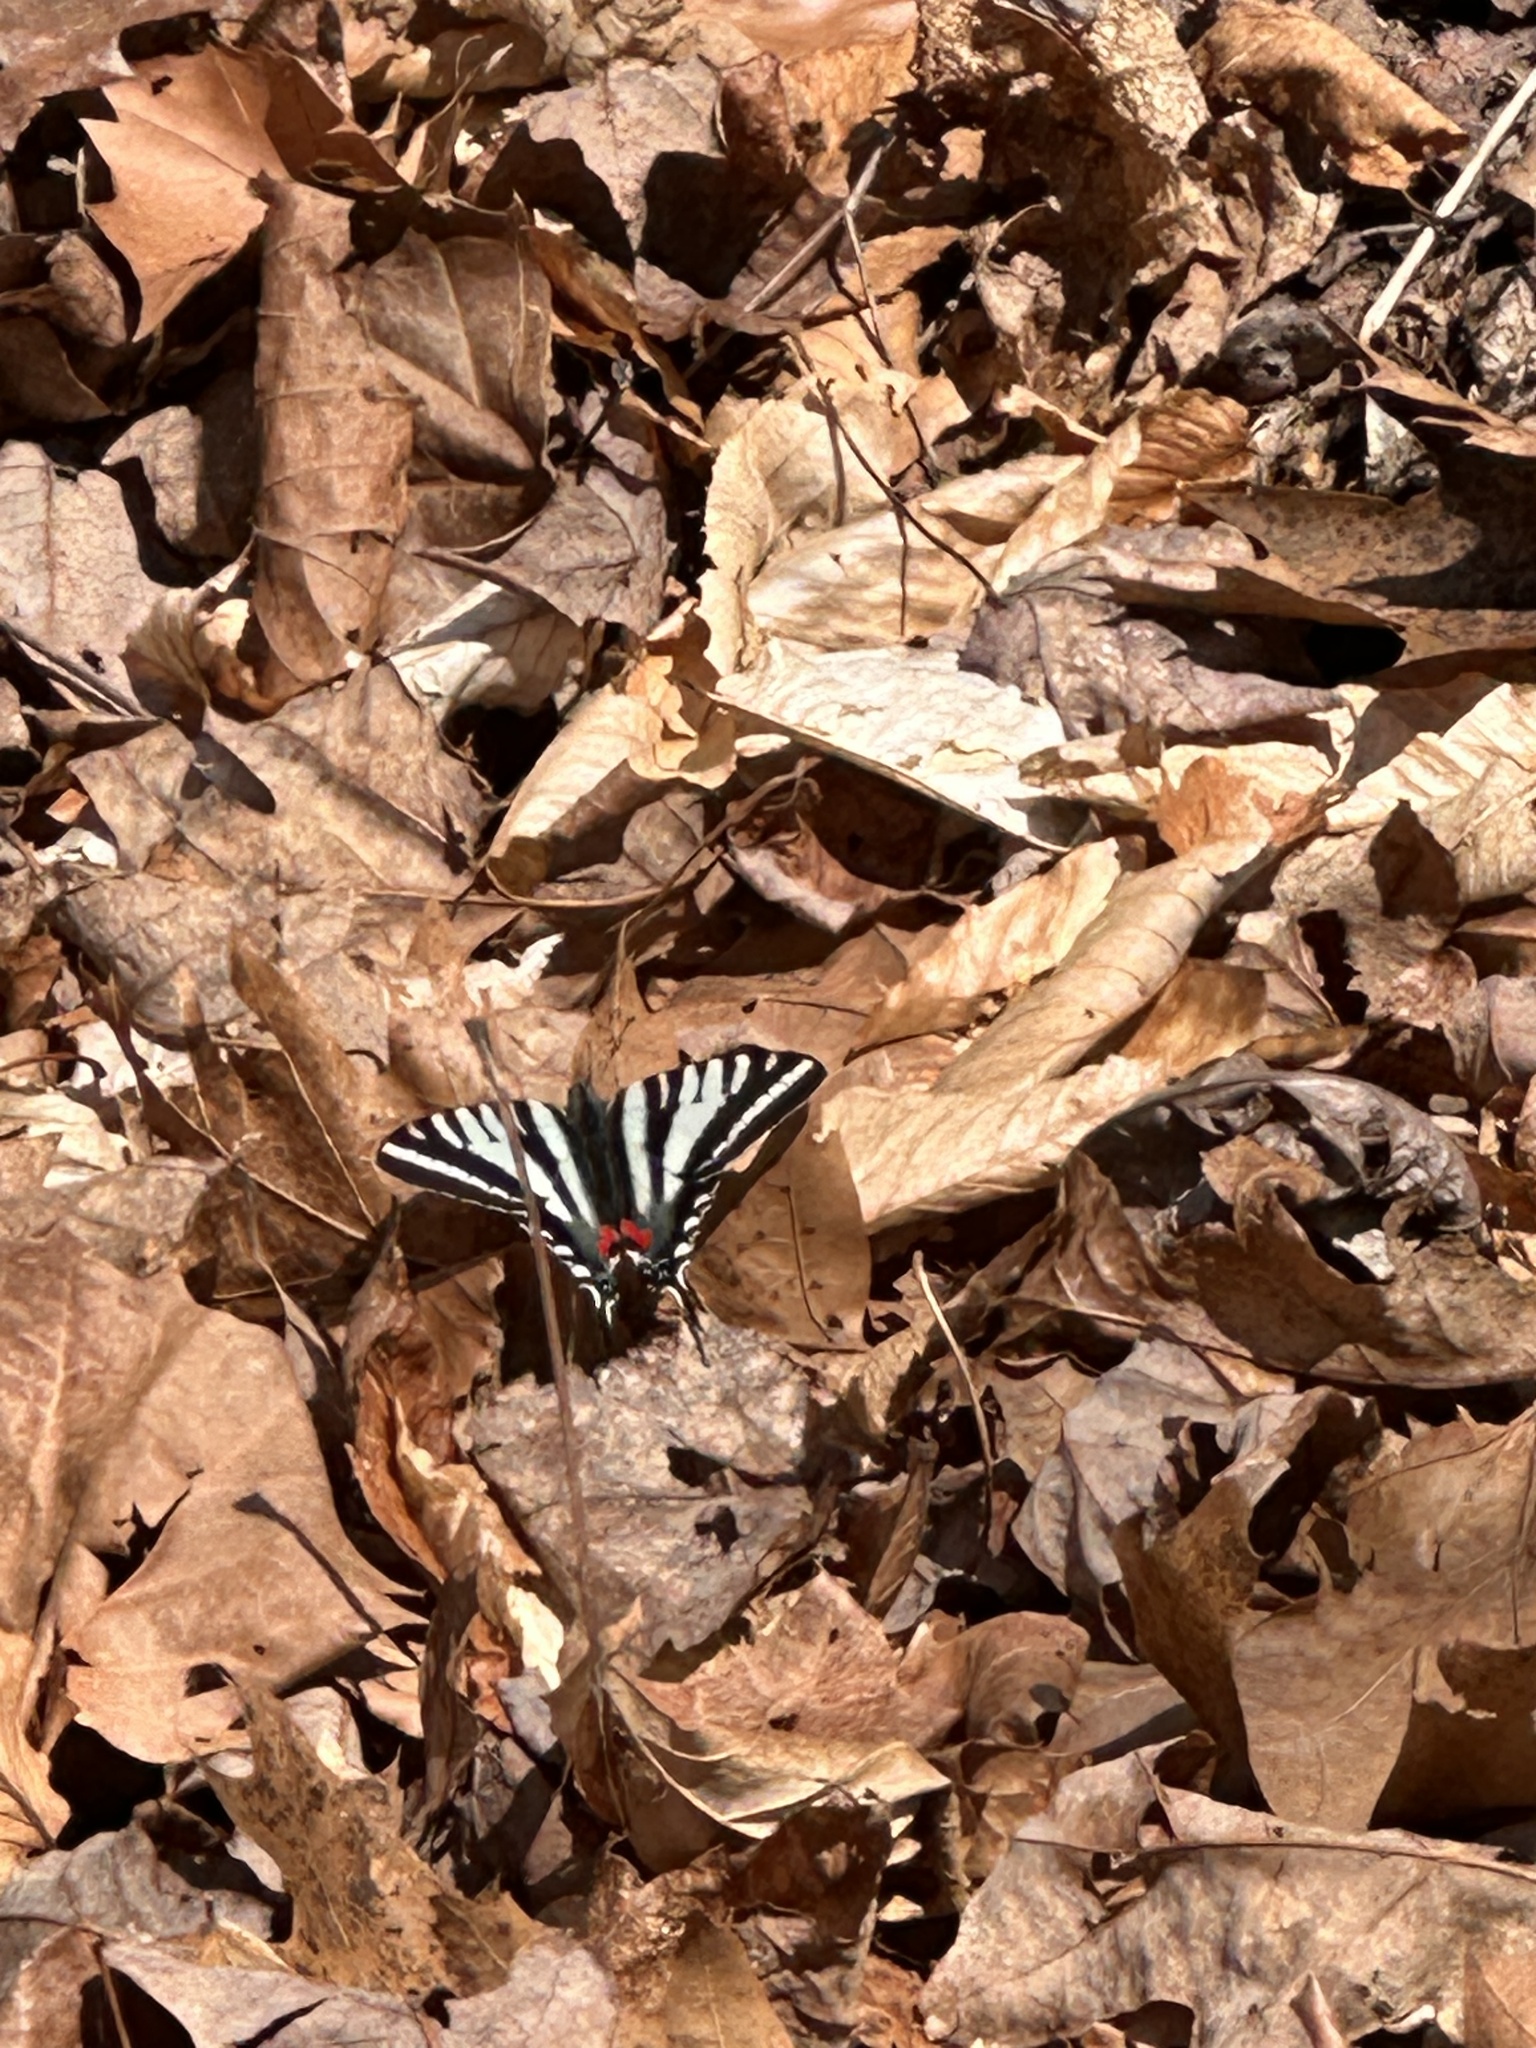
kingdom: Animalia
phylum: Arthropoda
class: Insecta
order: Lepidoptera
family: Papilionidae
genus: Protographium
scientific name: Protographium marcellus
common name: Zebra swallowtail
